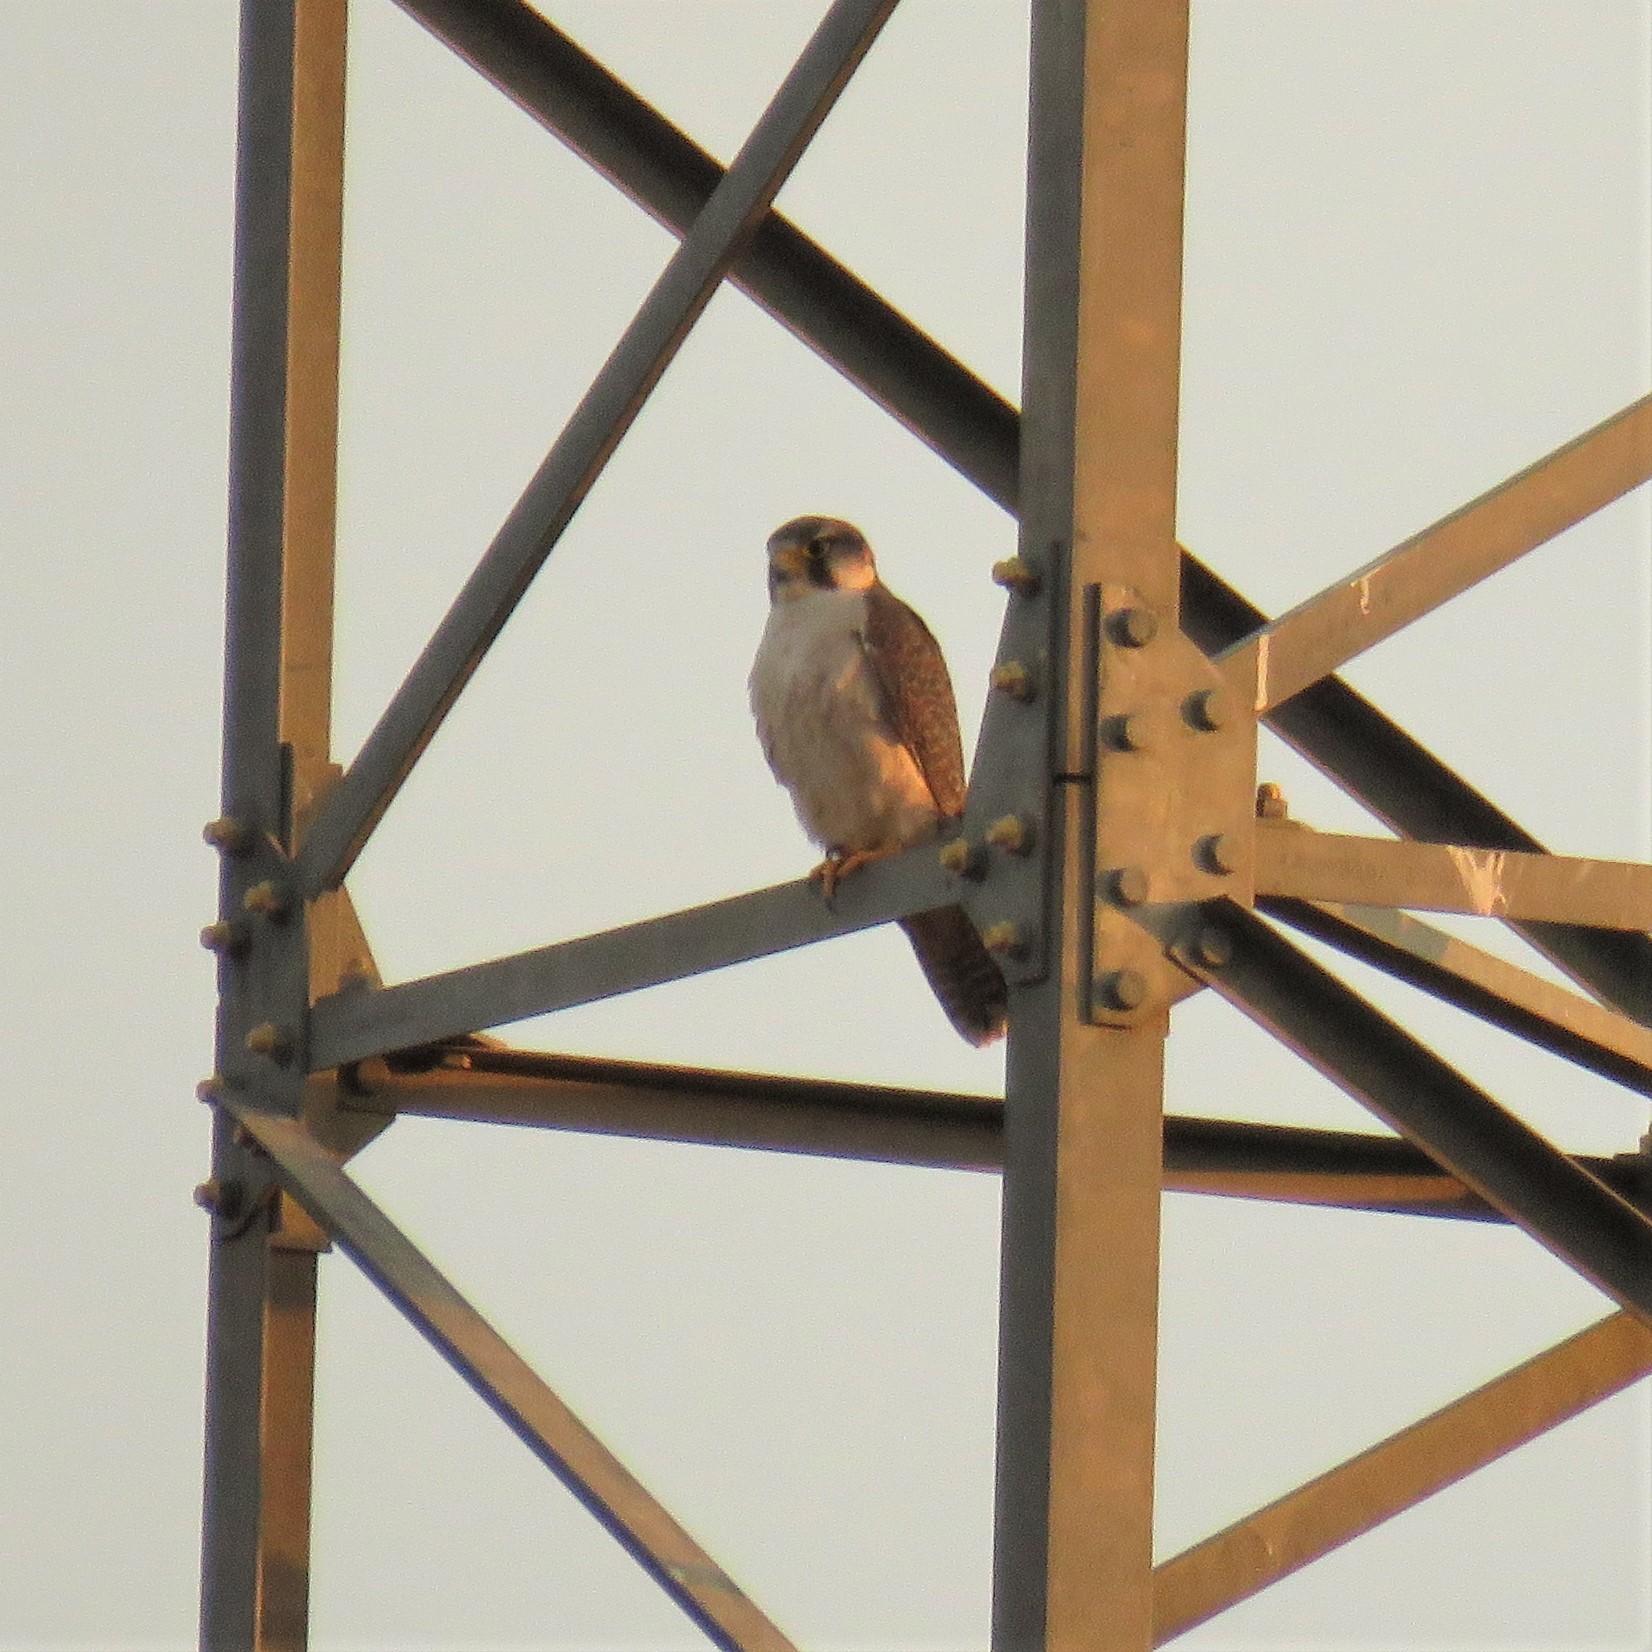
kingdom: Animalia
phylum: Chordata
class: Aves
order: Falconiformes
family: Falconidae
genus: Falco
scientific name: Falco biarmicus
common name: Lanner falcon
